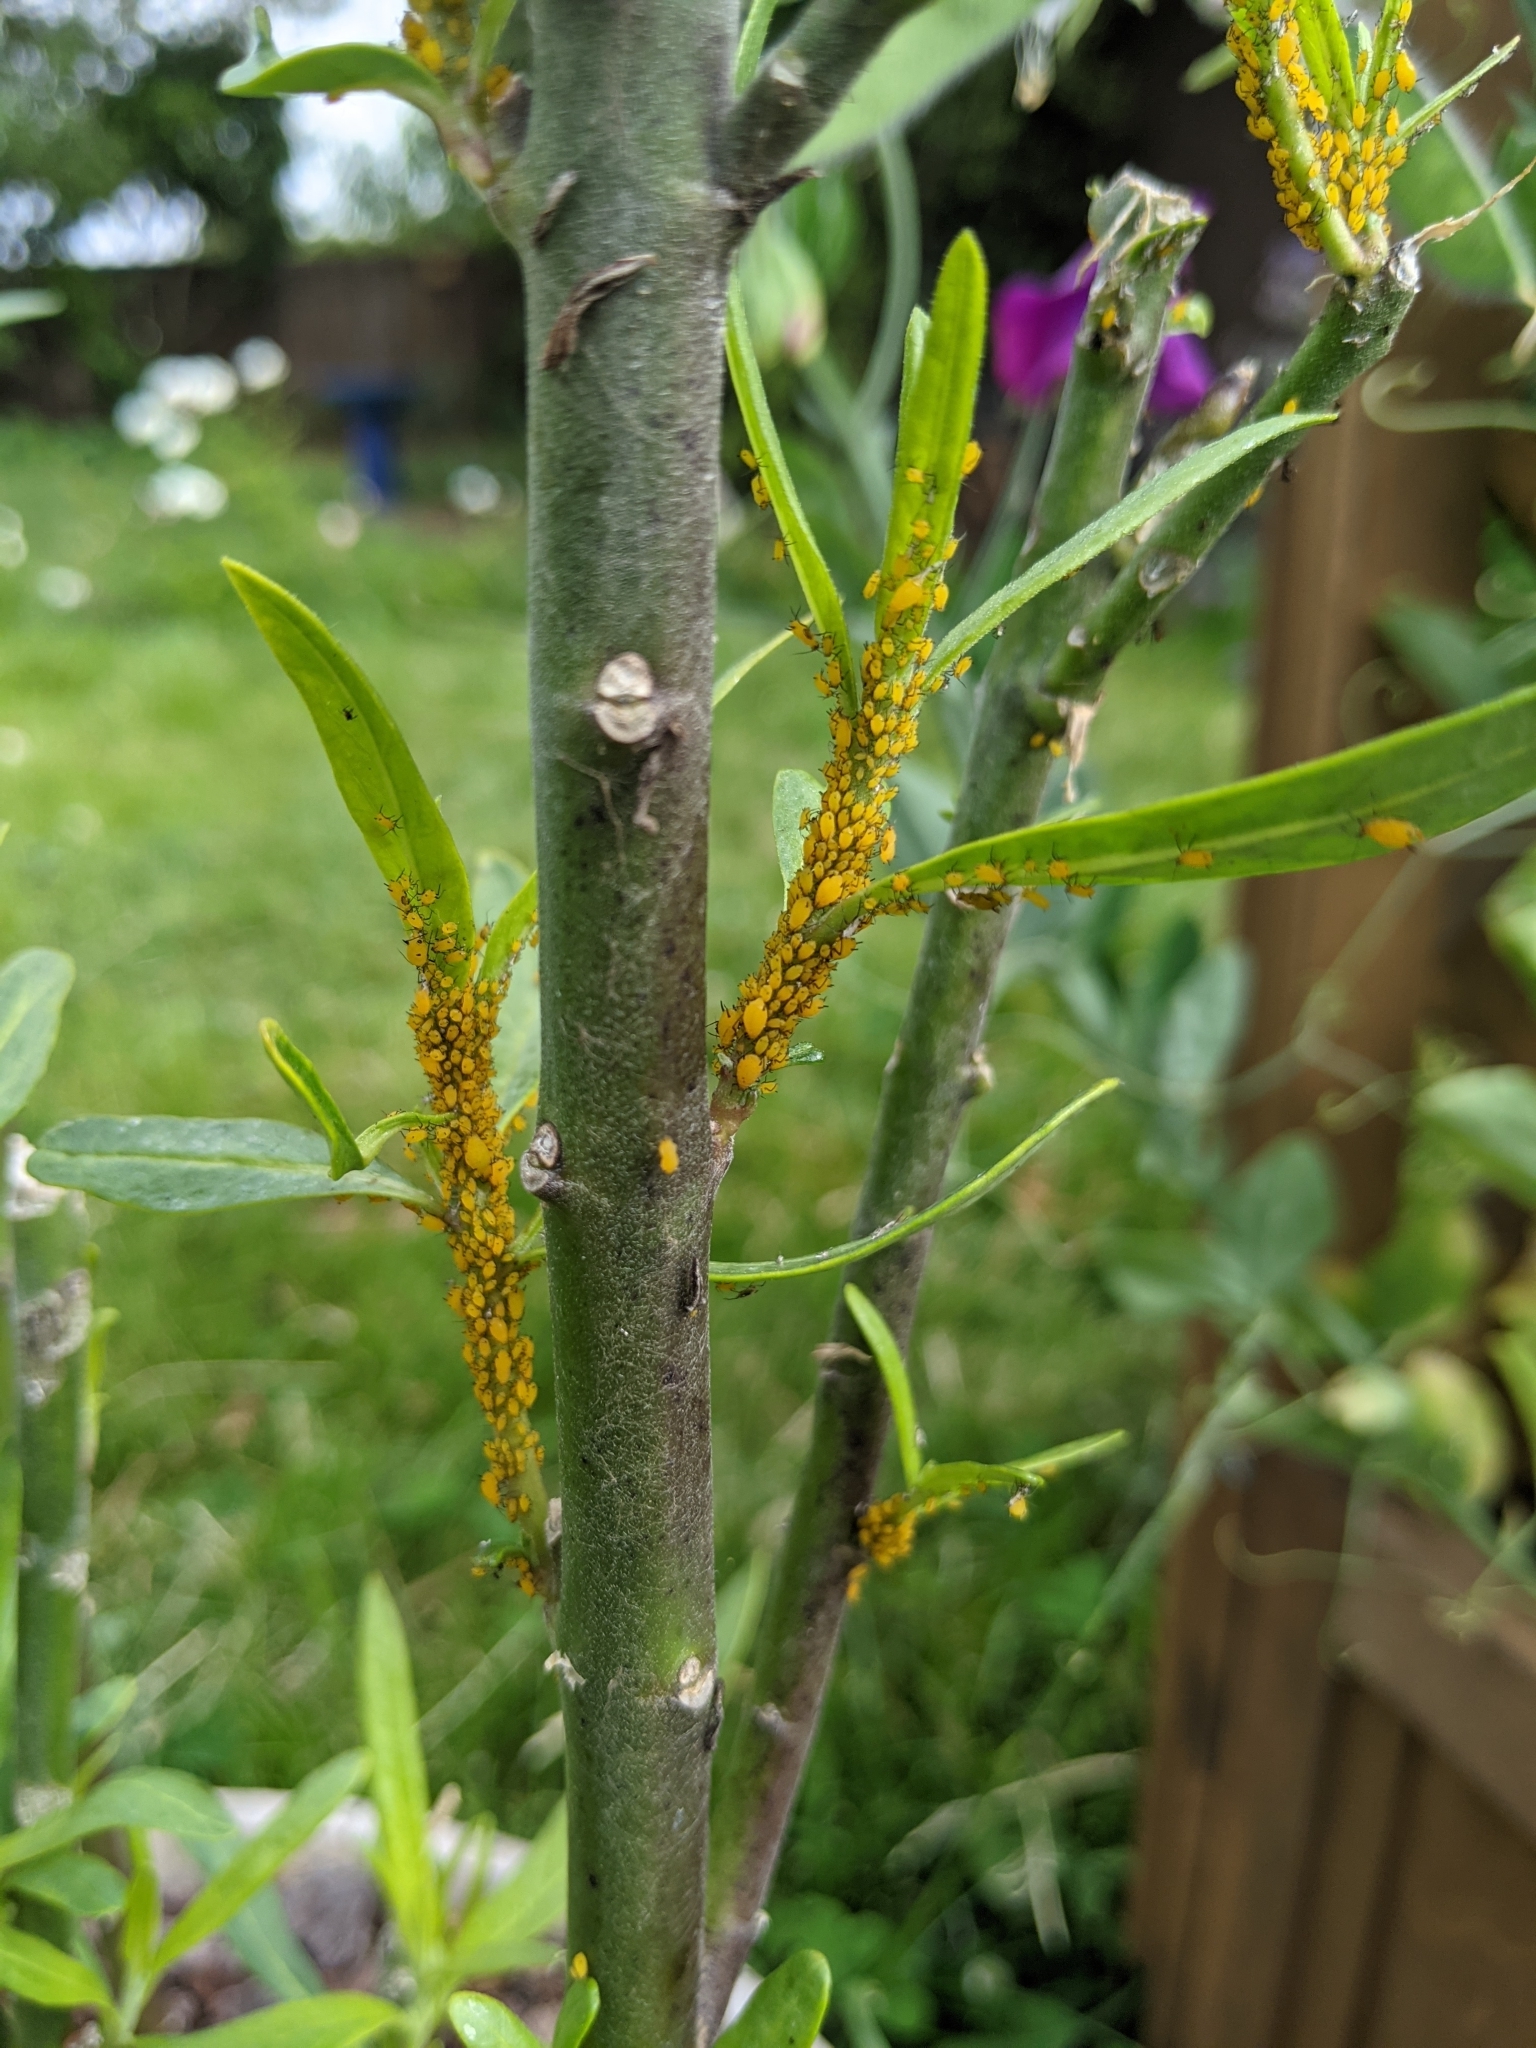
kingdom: Animalia
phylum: Arthropoda
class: Insecta
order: Hemiptera
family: Aphididae
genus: Aphis
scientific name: Aphis nerii
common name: Oleander aphid
